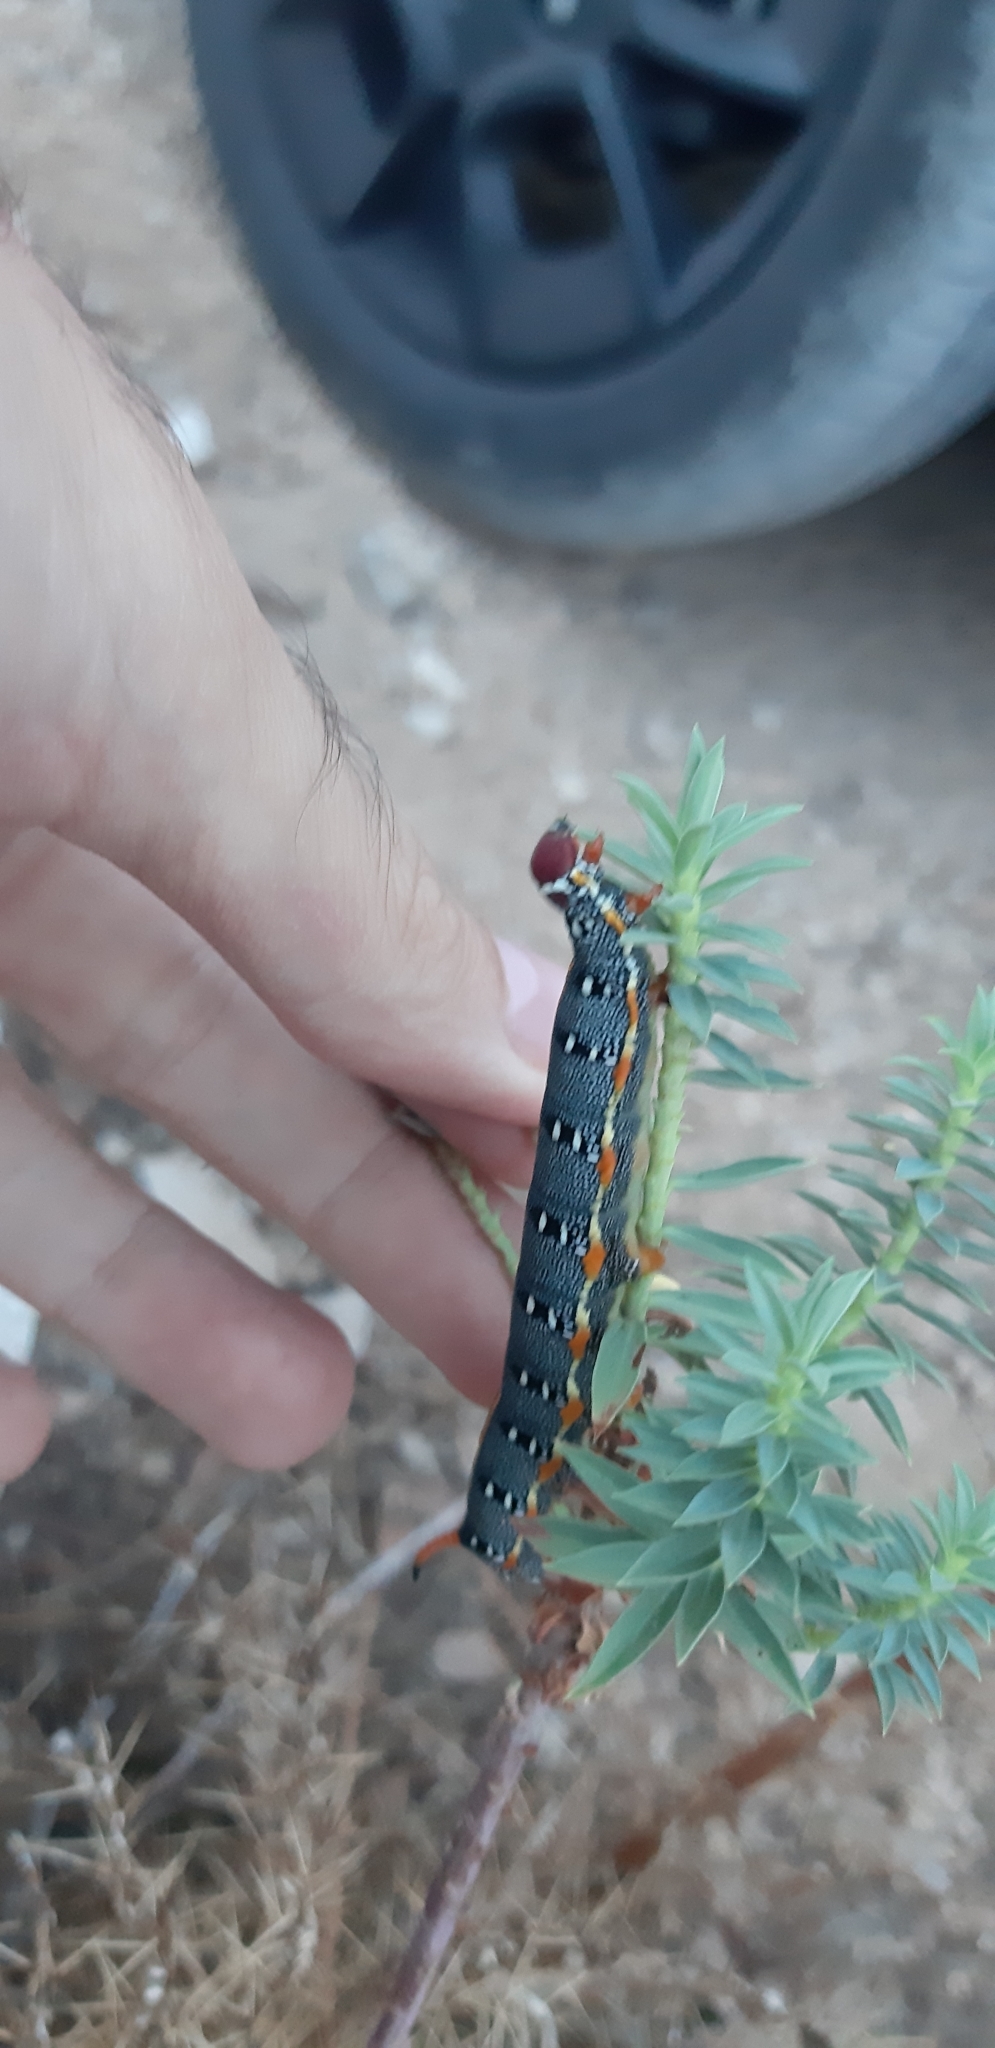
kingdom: Animalia
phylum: Arthropoda
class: Insecta
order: Lepidoptera
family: Sphingidae
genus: Hyles
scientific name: Hyles dahlii
